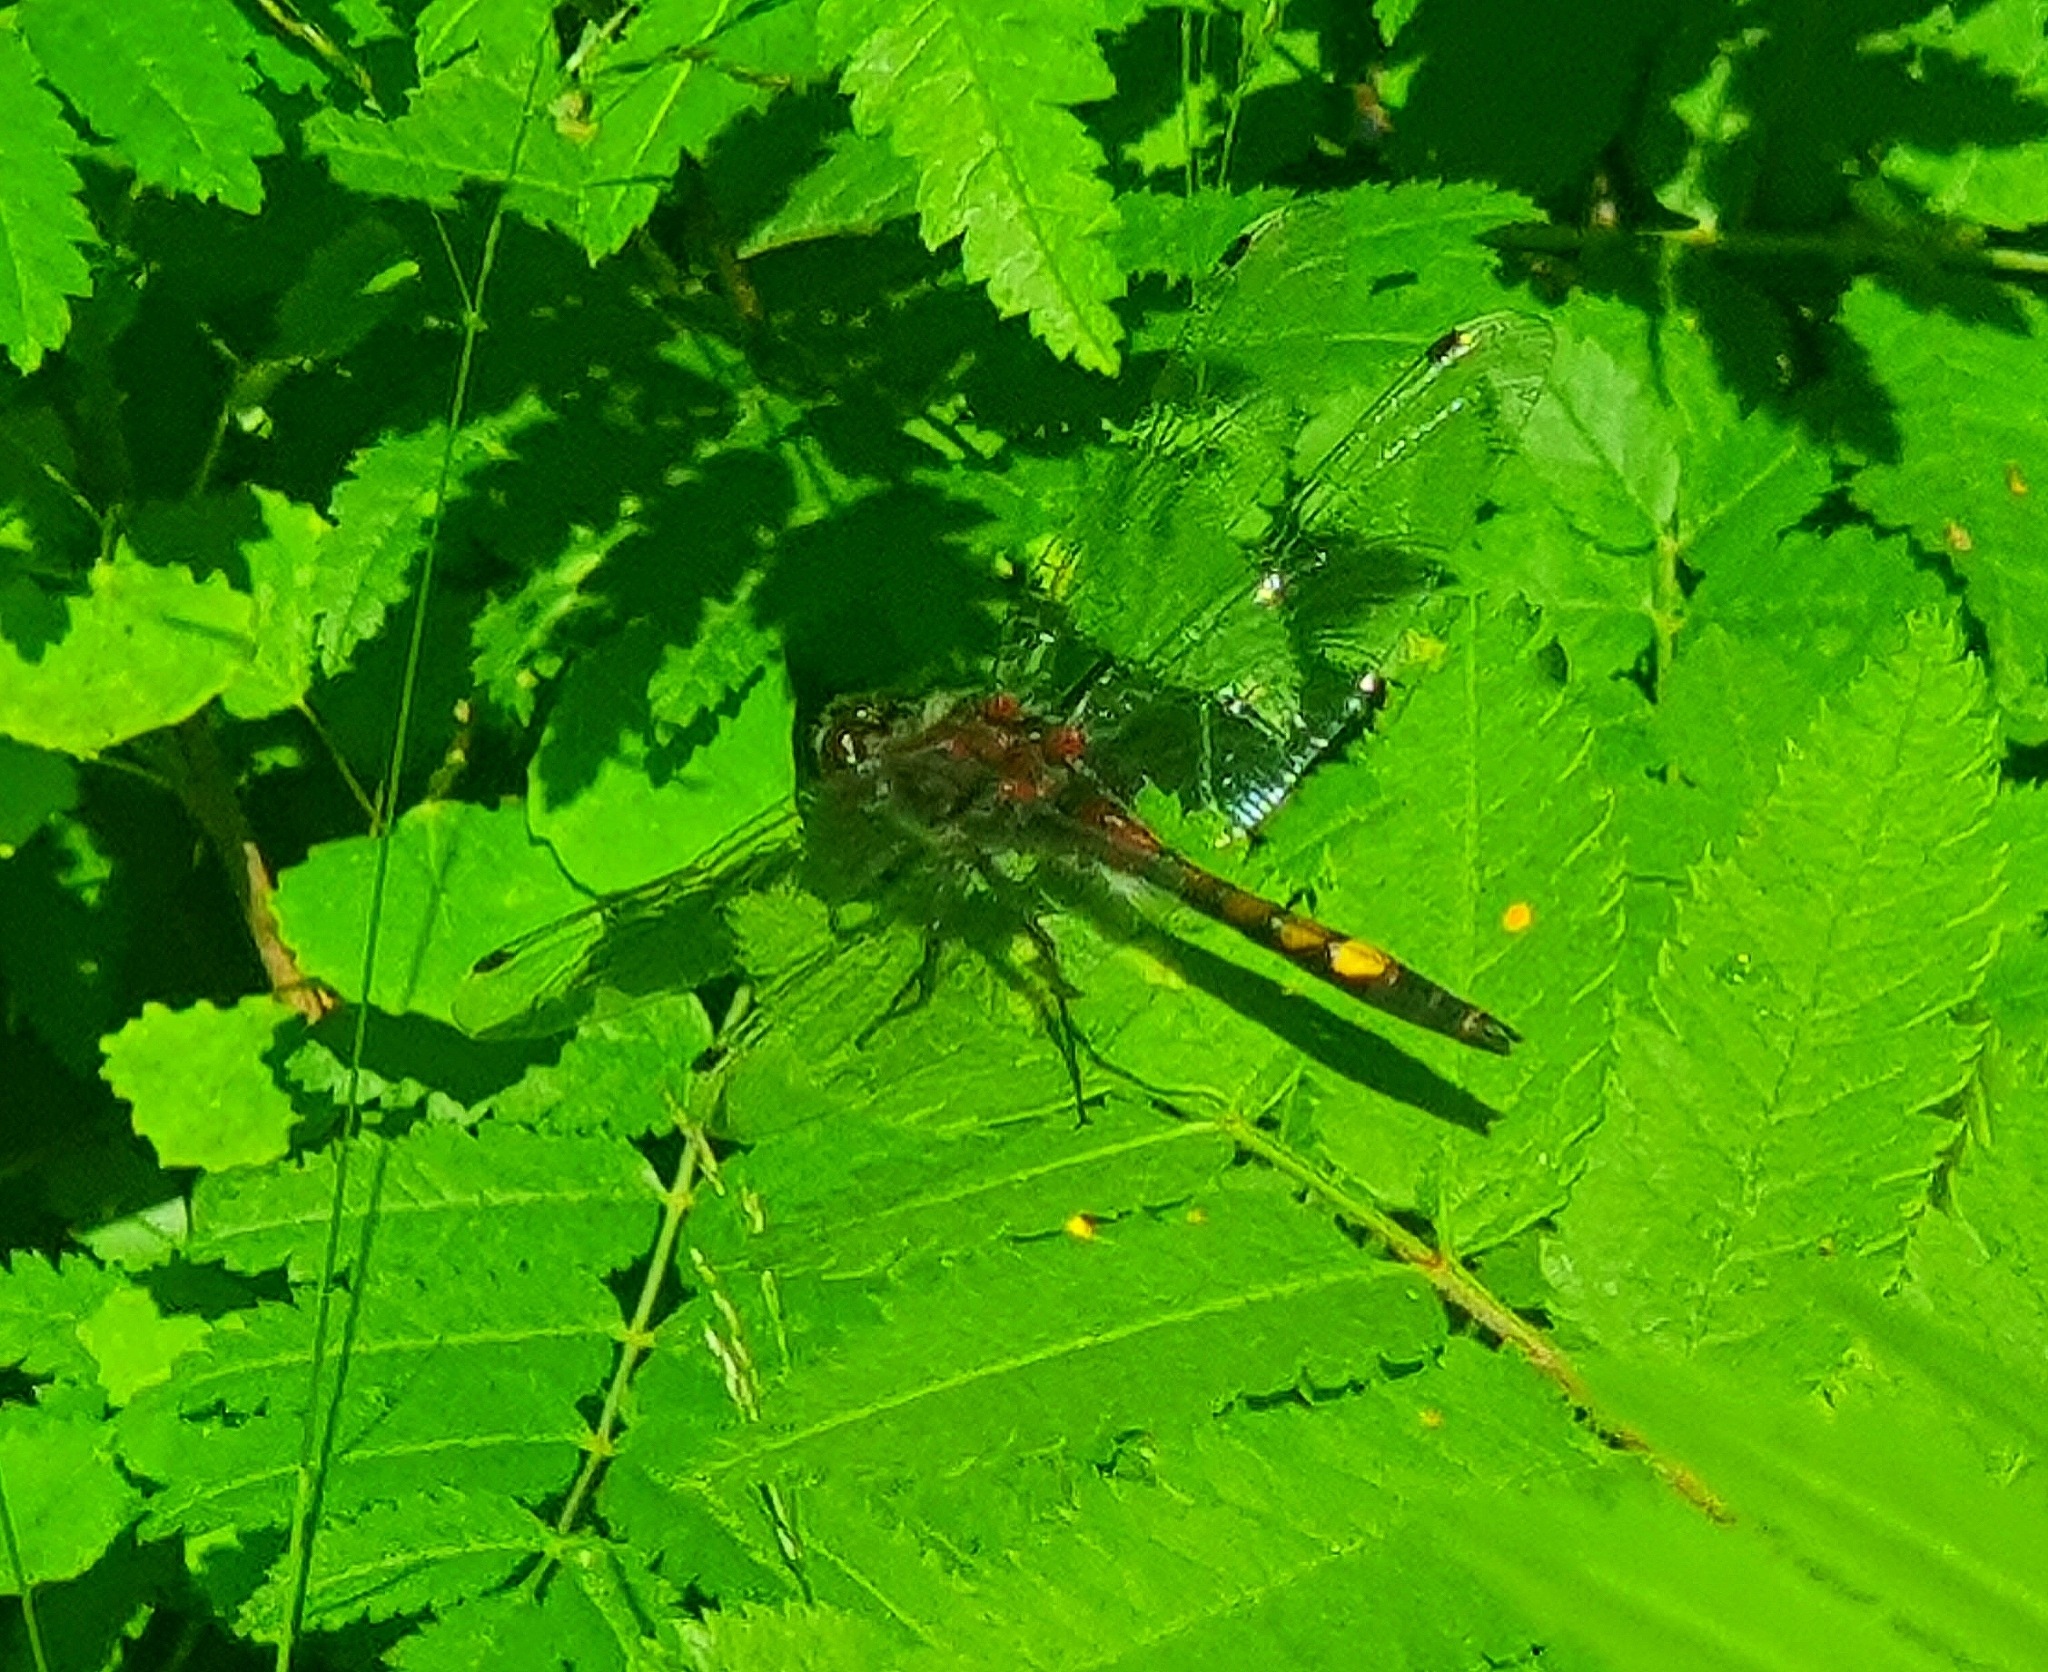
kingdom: Animalia
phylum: Arthropoda
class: Insecta
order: Odonata
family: Libellulidae
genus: Leucorrhinia
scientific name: Leucorrhinia pectoralis
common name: Yellow-spotted whiteface
